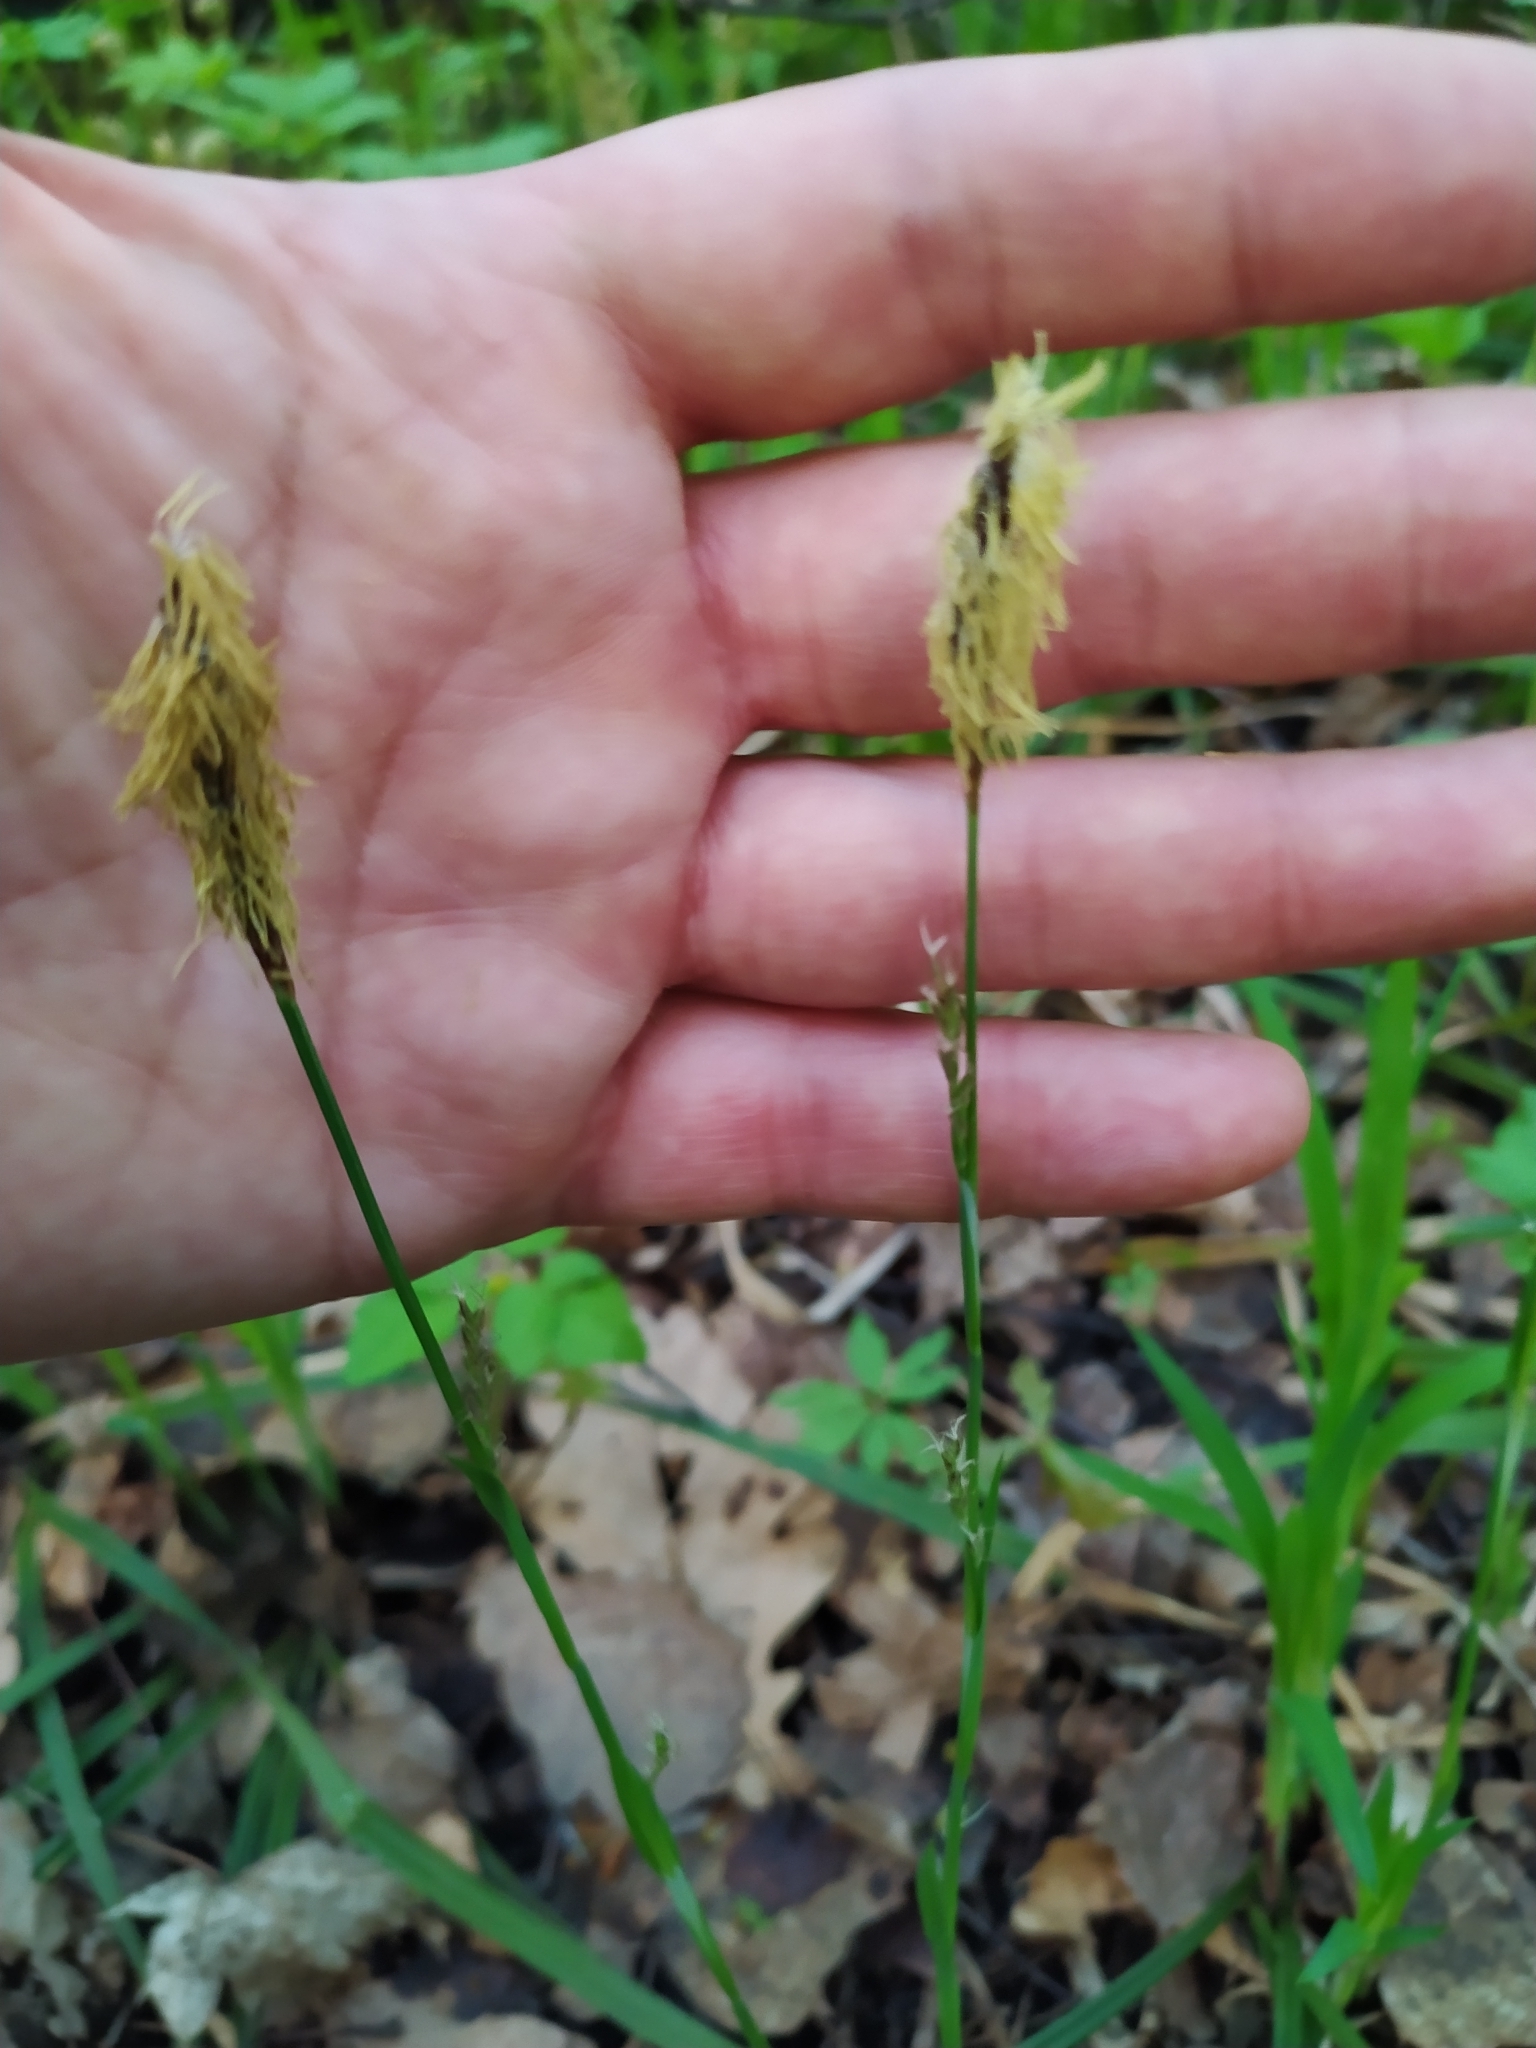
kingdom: Plantae
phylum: Tracheophyta
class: Liliopsida
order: Poales
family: Cyperaceae
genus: Carex
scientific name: Carex pilosa
